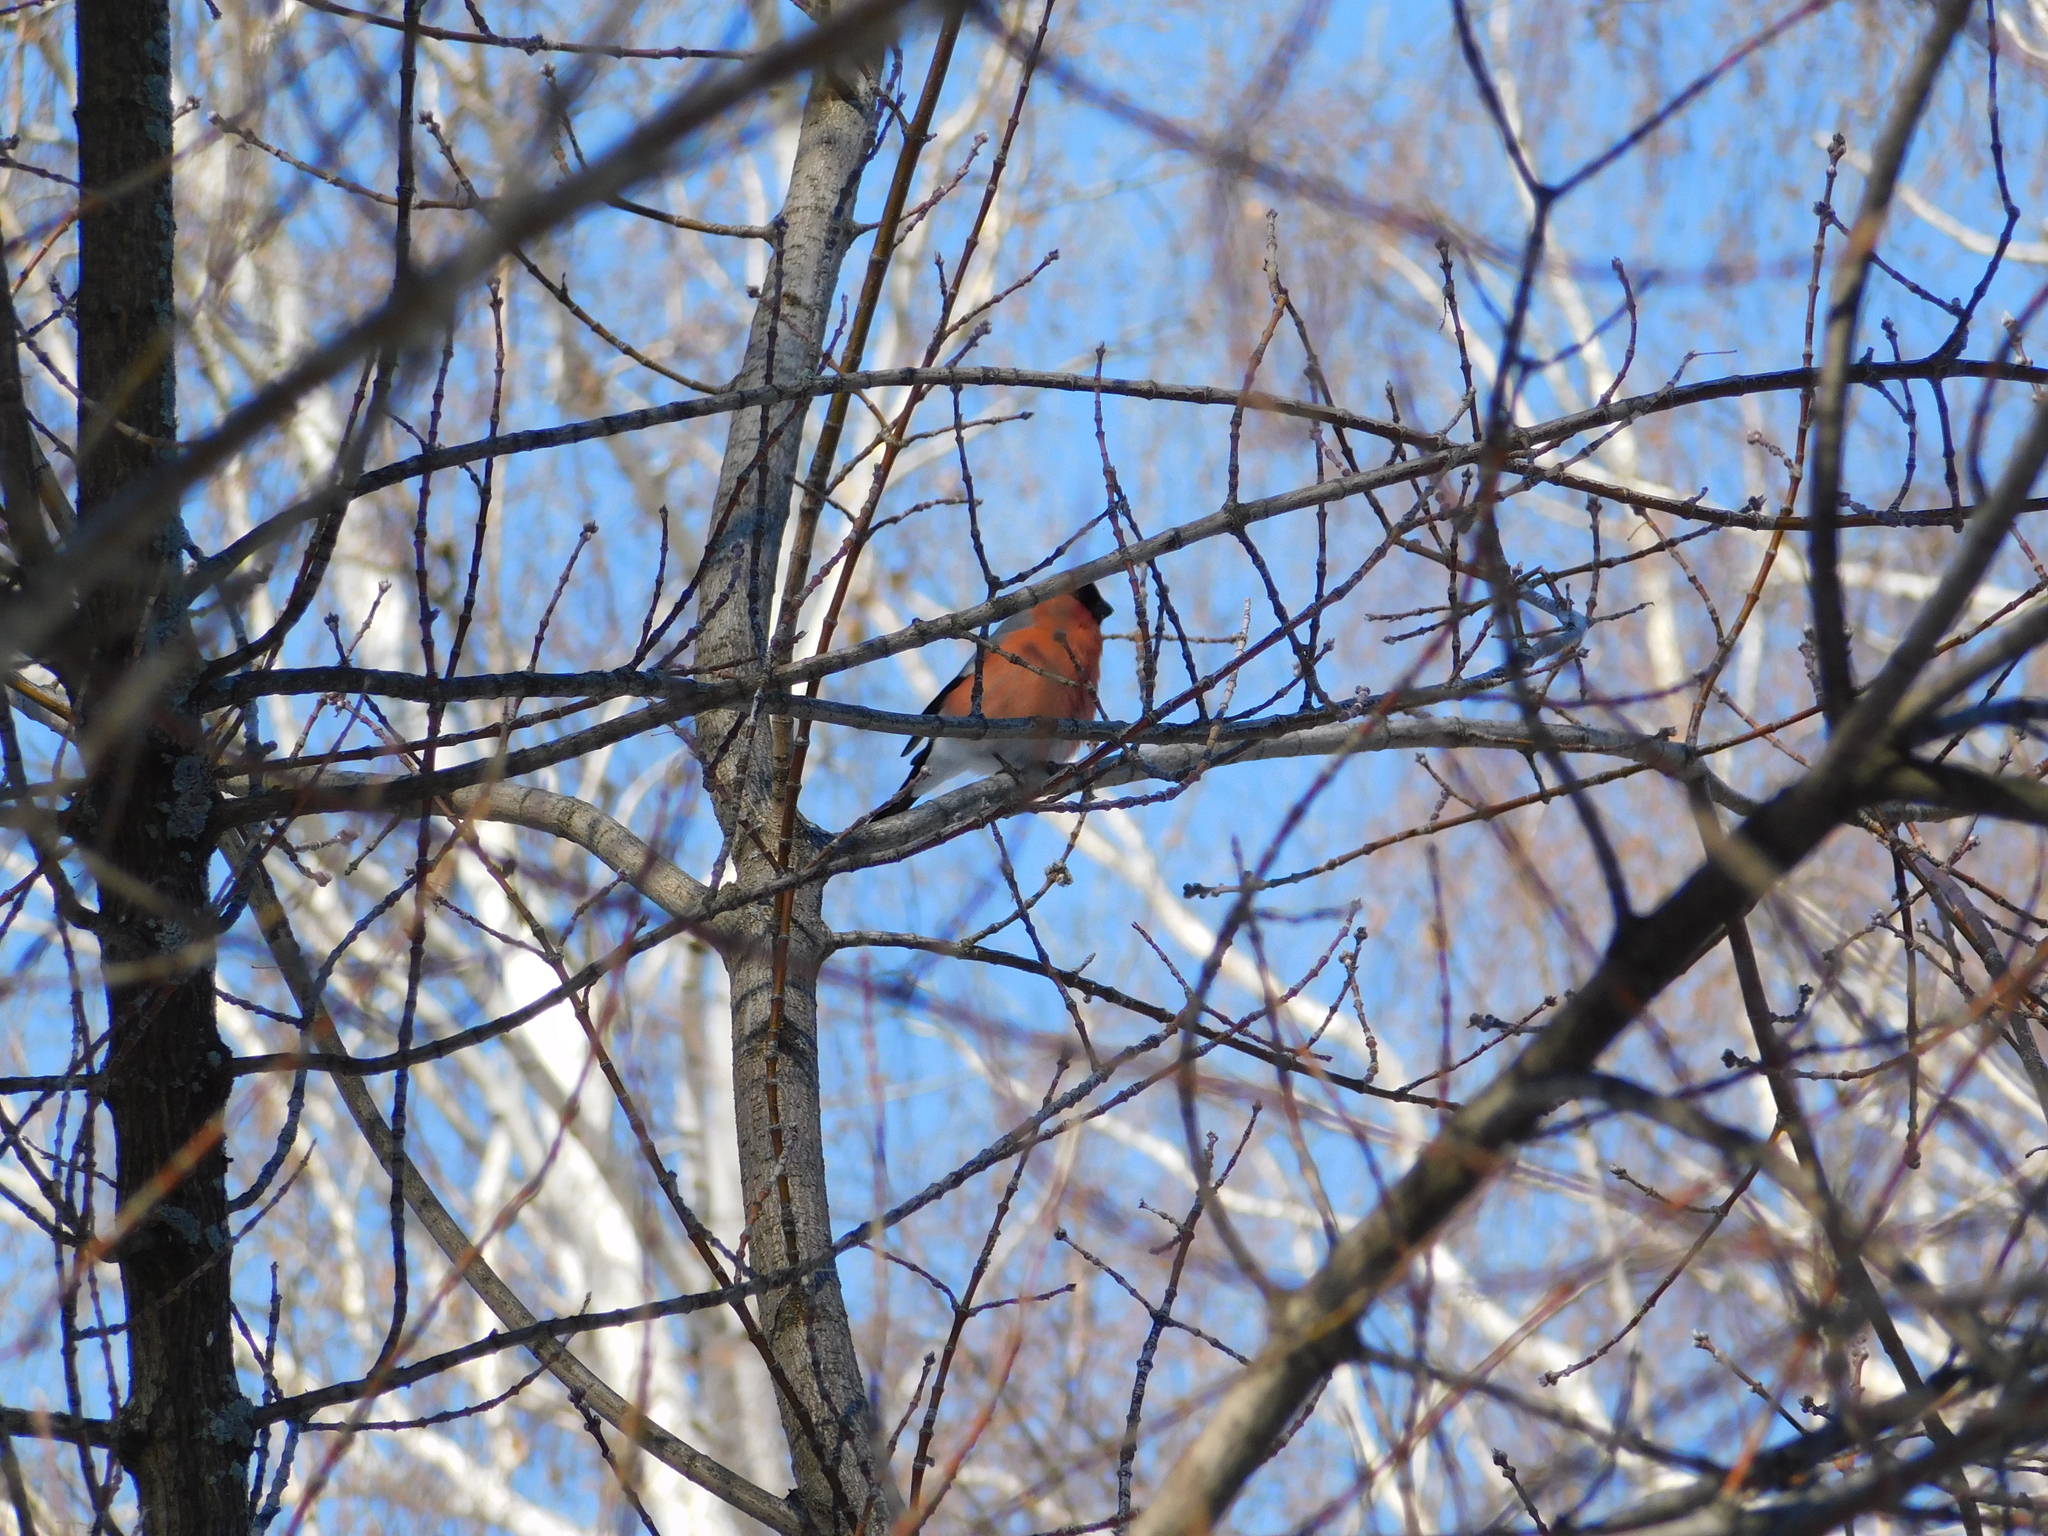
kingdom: Animalia
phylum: Chordata
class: Aves
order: Passeriformes
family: Fringillidae
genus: Pyrrhula
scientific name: Pyrrhula pyrrhula
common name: Eurasian bullfinch
